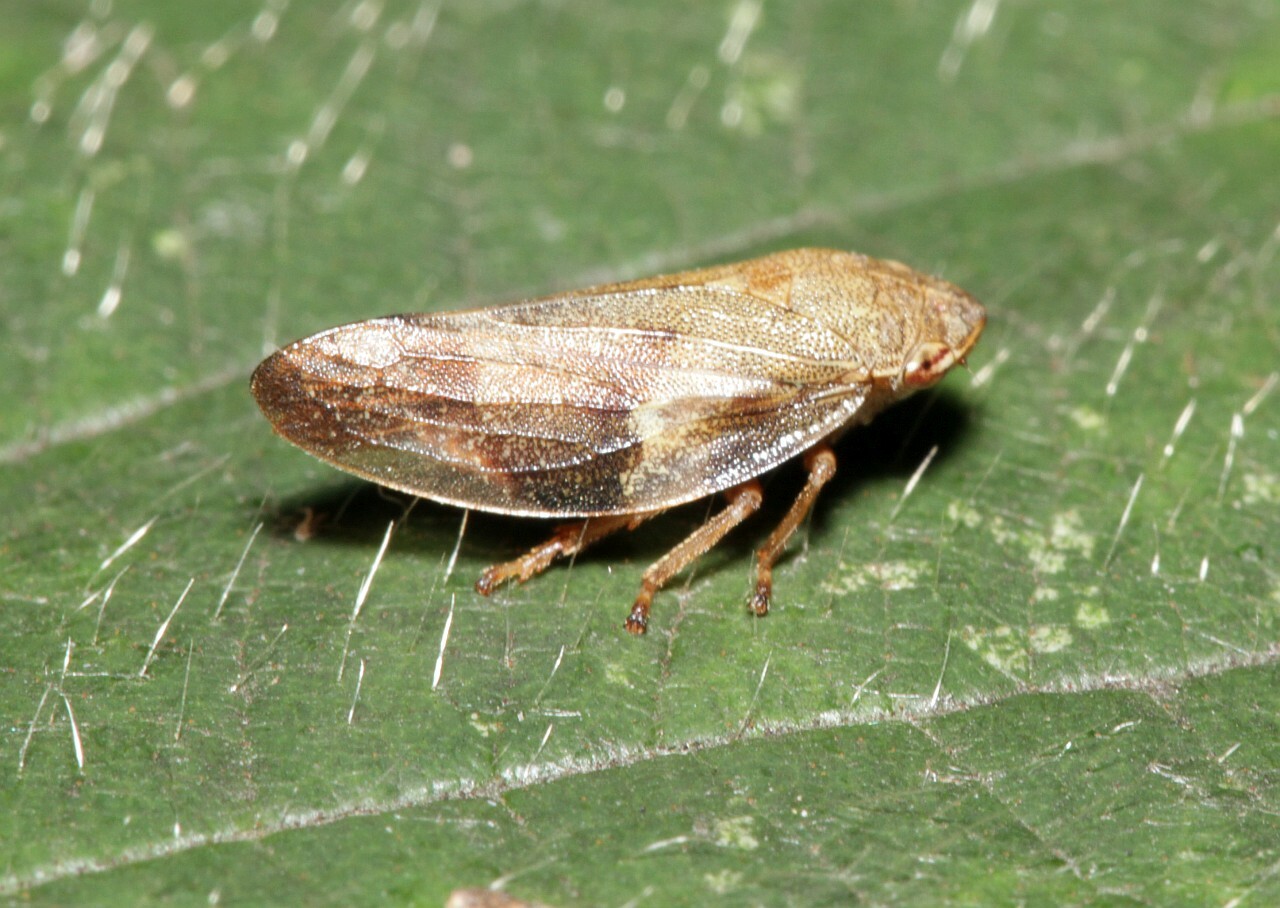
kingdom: Animalia
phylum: Arthropoda
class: Insecta
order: Hemiptera
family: Aphrophoridae
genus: Aphrophora
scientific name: Aphrophora alni
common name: European alder spittlebug
